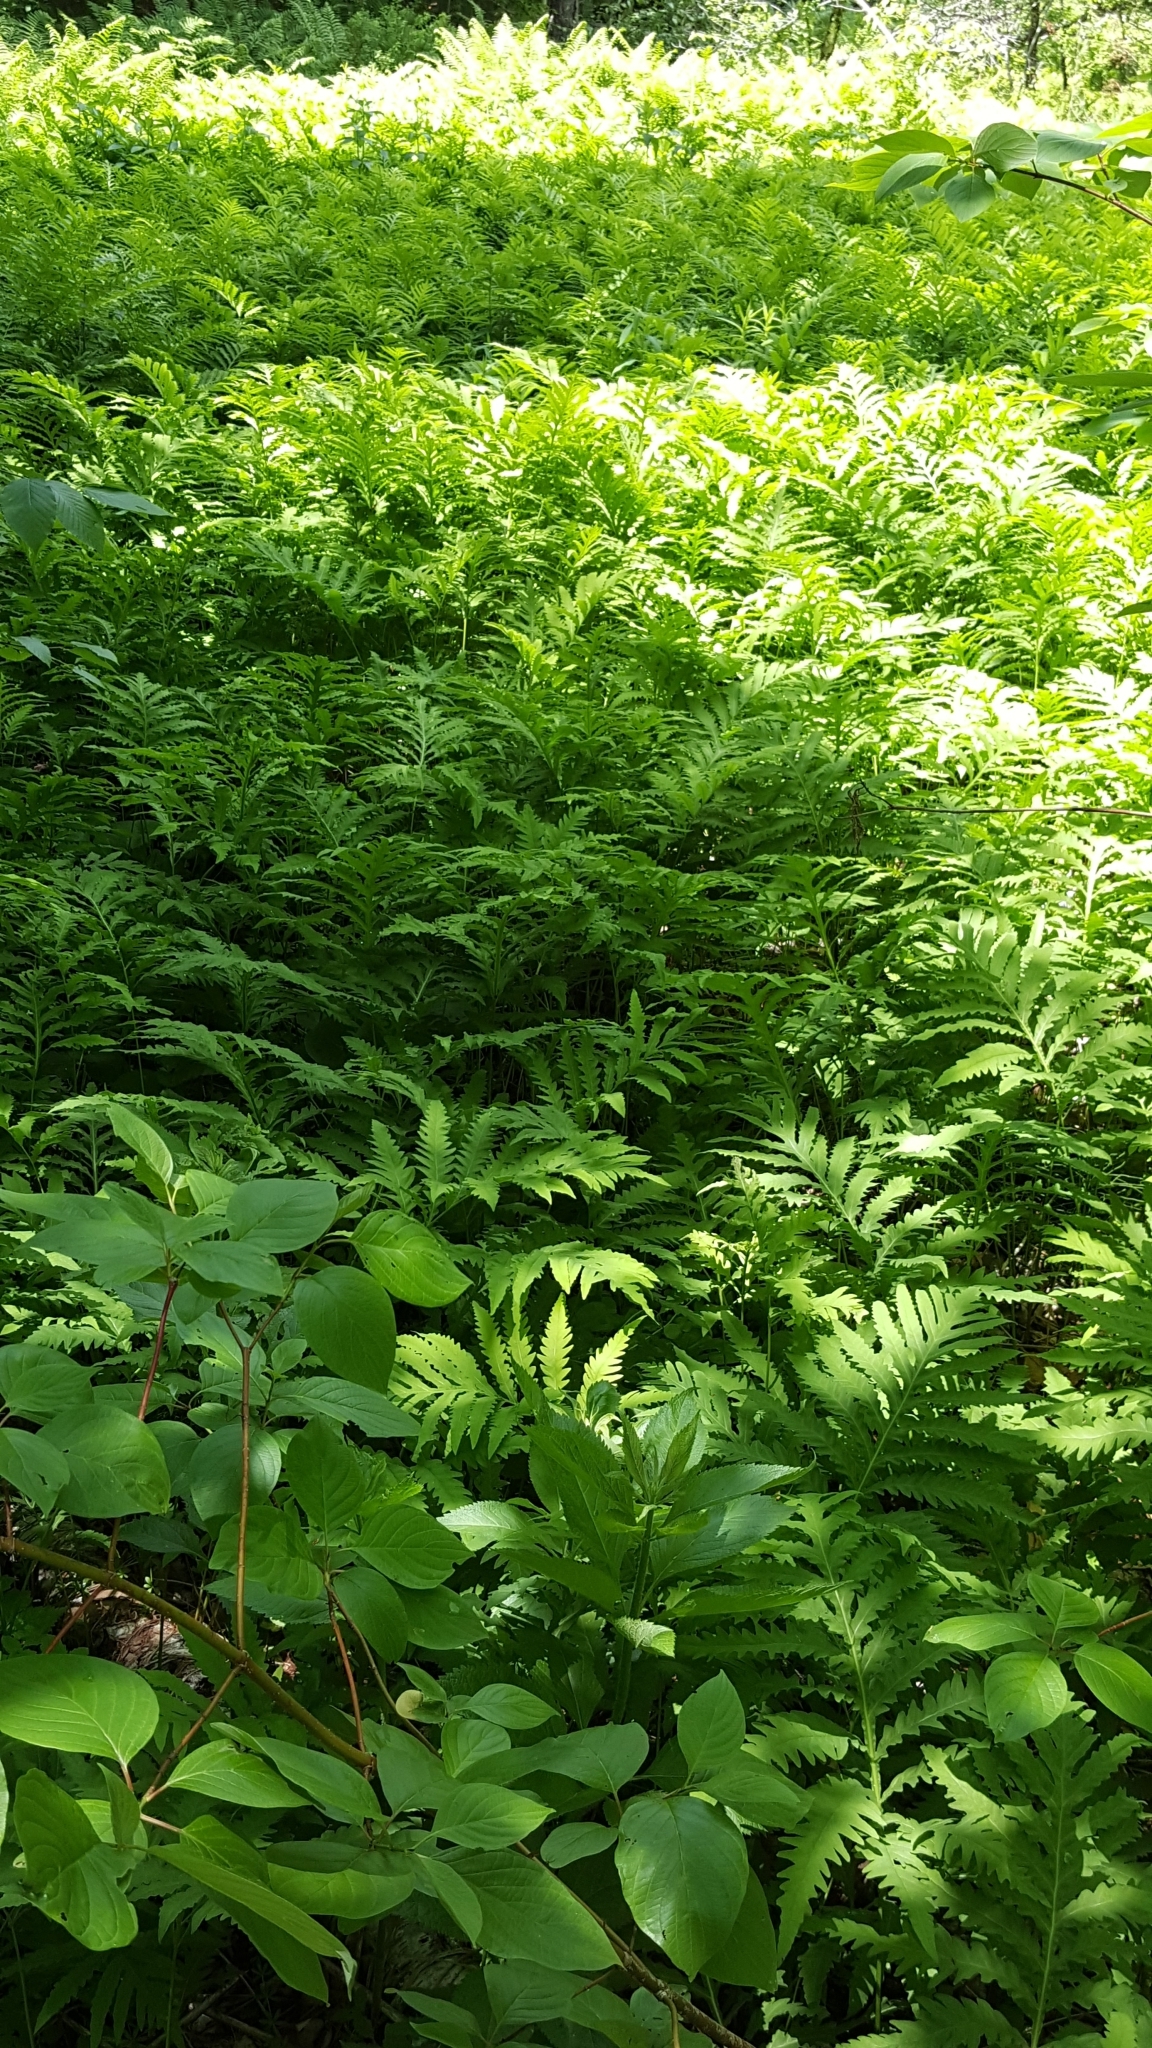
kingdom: Plantae
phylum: Tracheophyta
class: Polypodiopsida
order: Polypodiales
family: Onocleaceae
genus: Onoclea
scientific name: Onoclea sensibilis
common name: Sensitive fern
